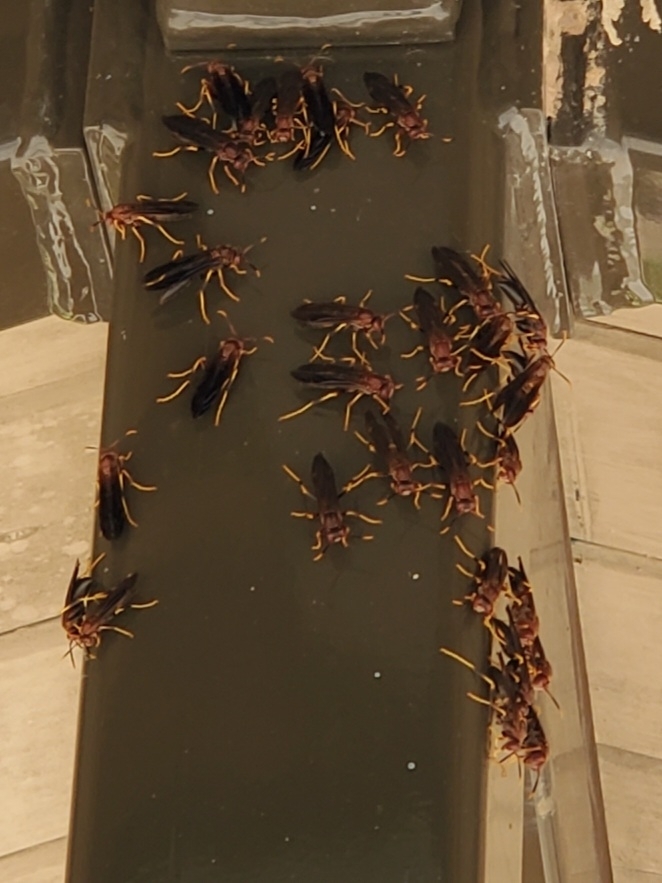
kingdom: Animalia
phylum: Arthropoda
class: Insecta
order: Hymenoptera
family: Eumenidae
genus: Polistes
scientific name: Polistes annularis
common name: Ringed paper wasp
